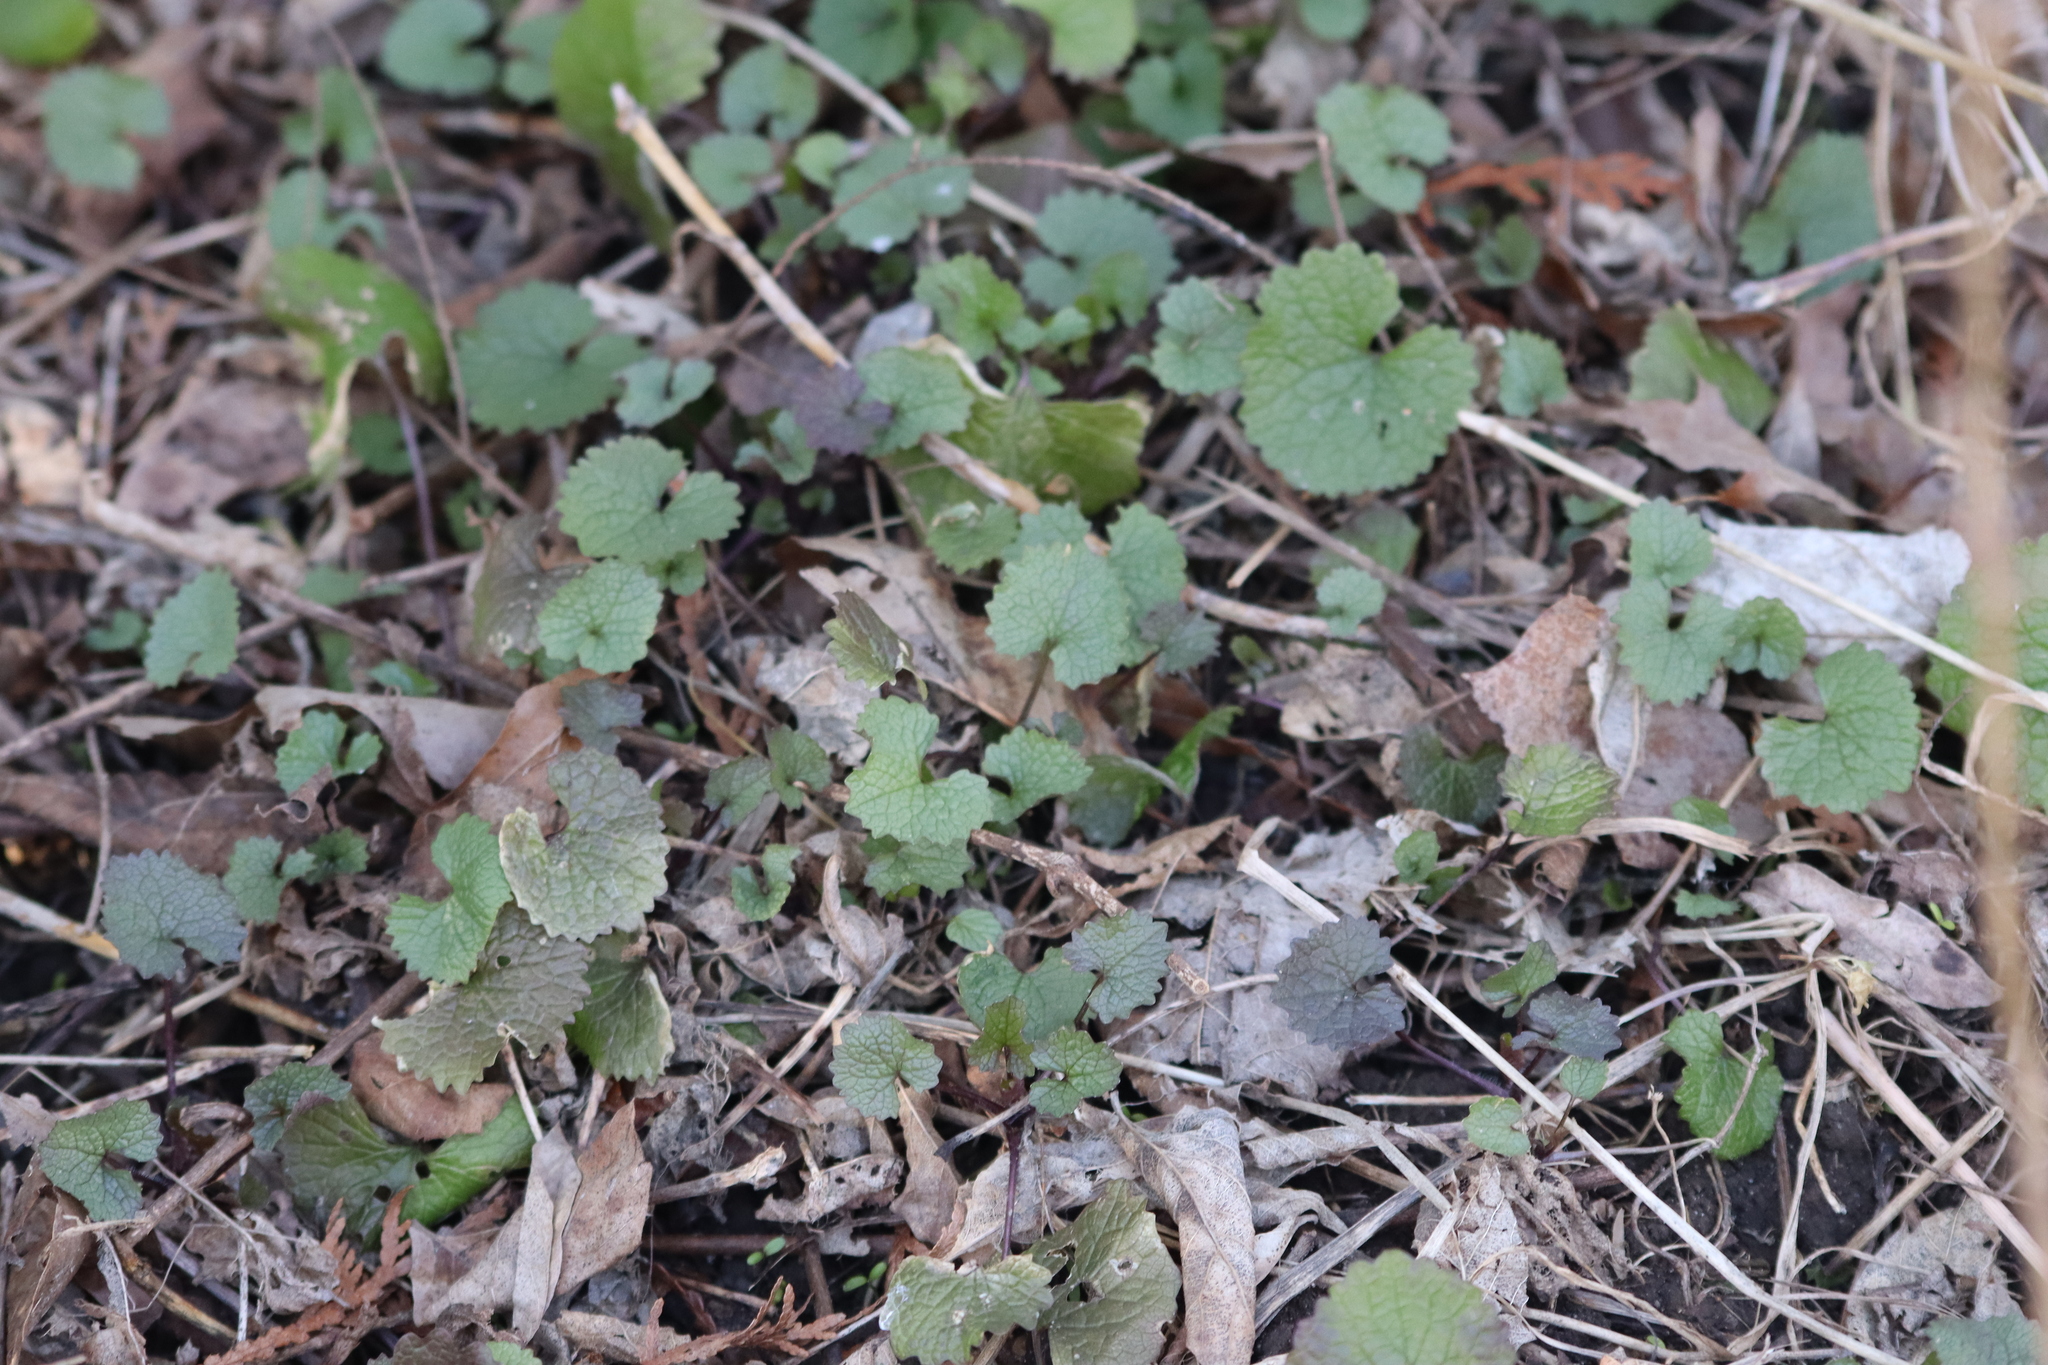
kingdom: Plantae
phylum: Tracheophyta
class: Magnoliopsida
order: Brassicales
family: Brassicaceae
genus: Alliaria
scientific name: Alliaria petiolata
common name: Garlic mustard
